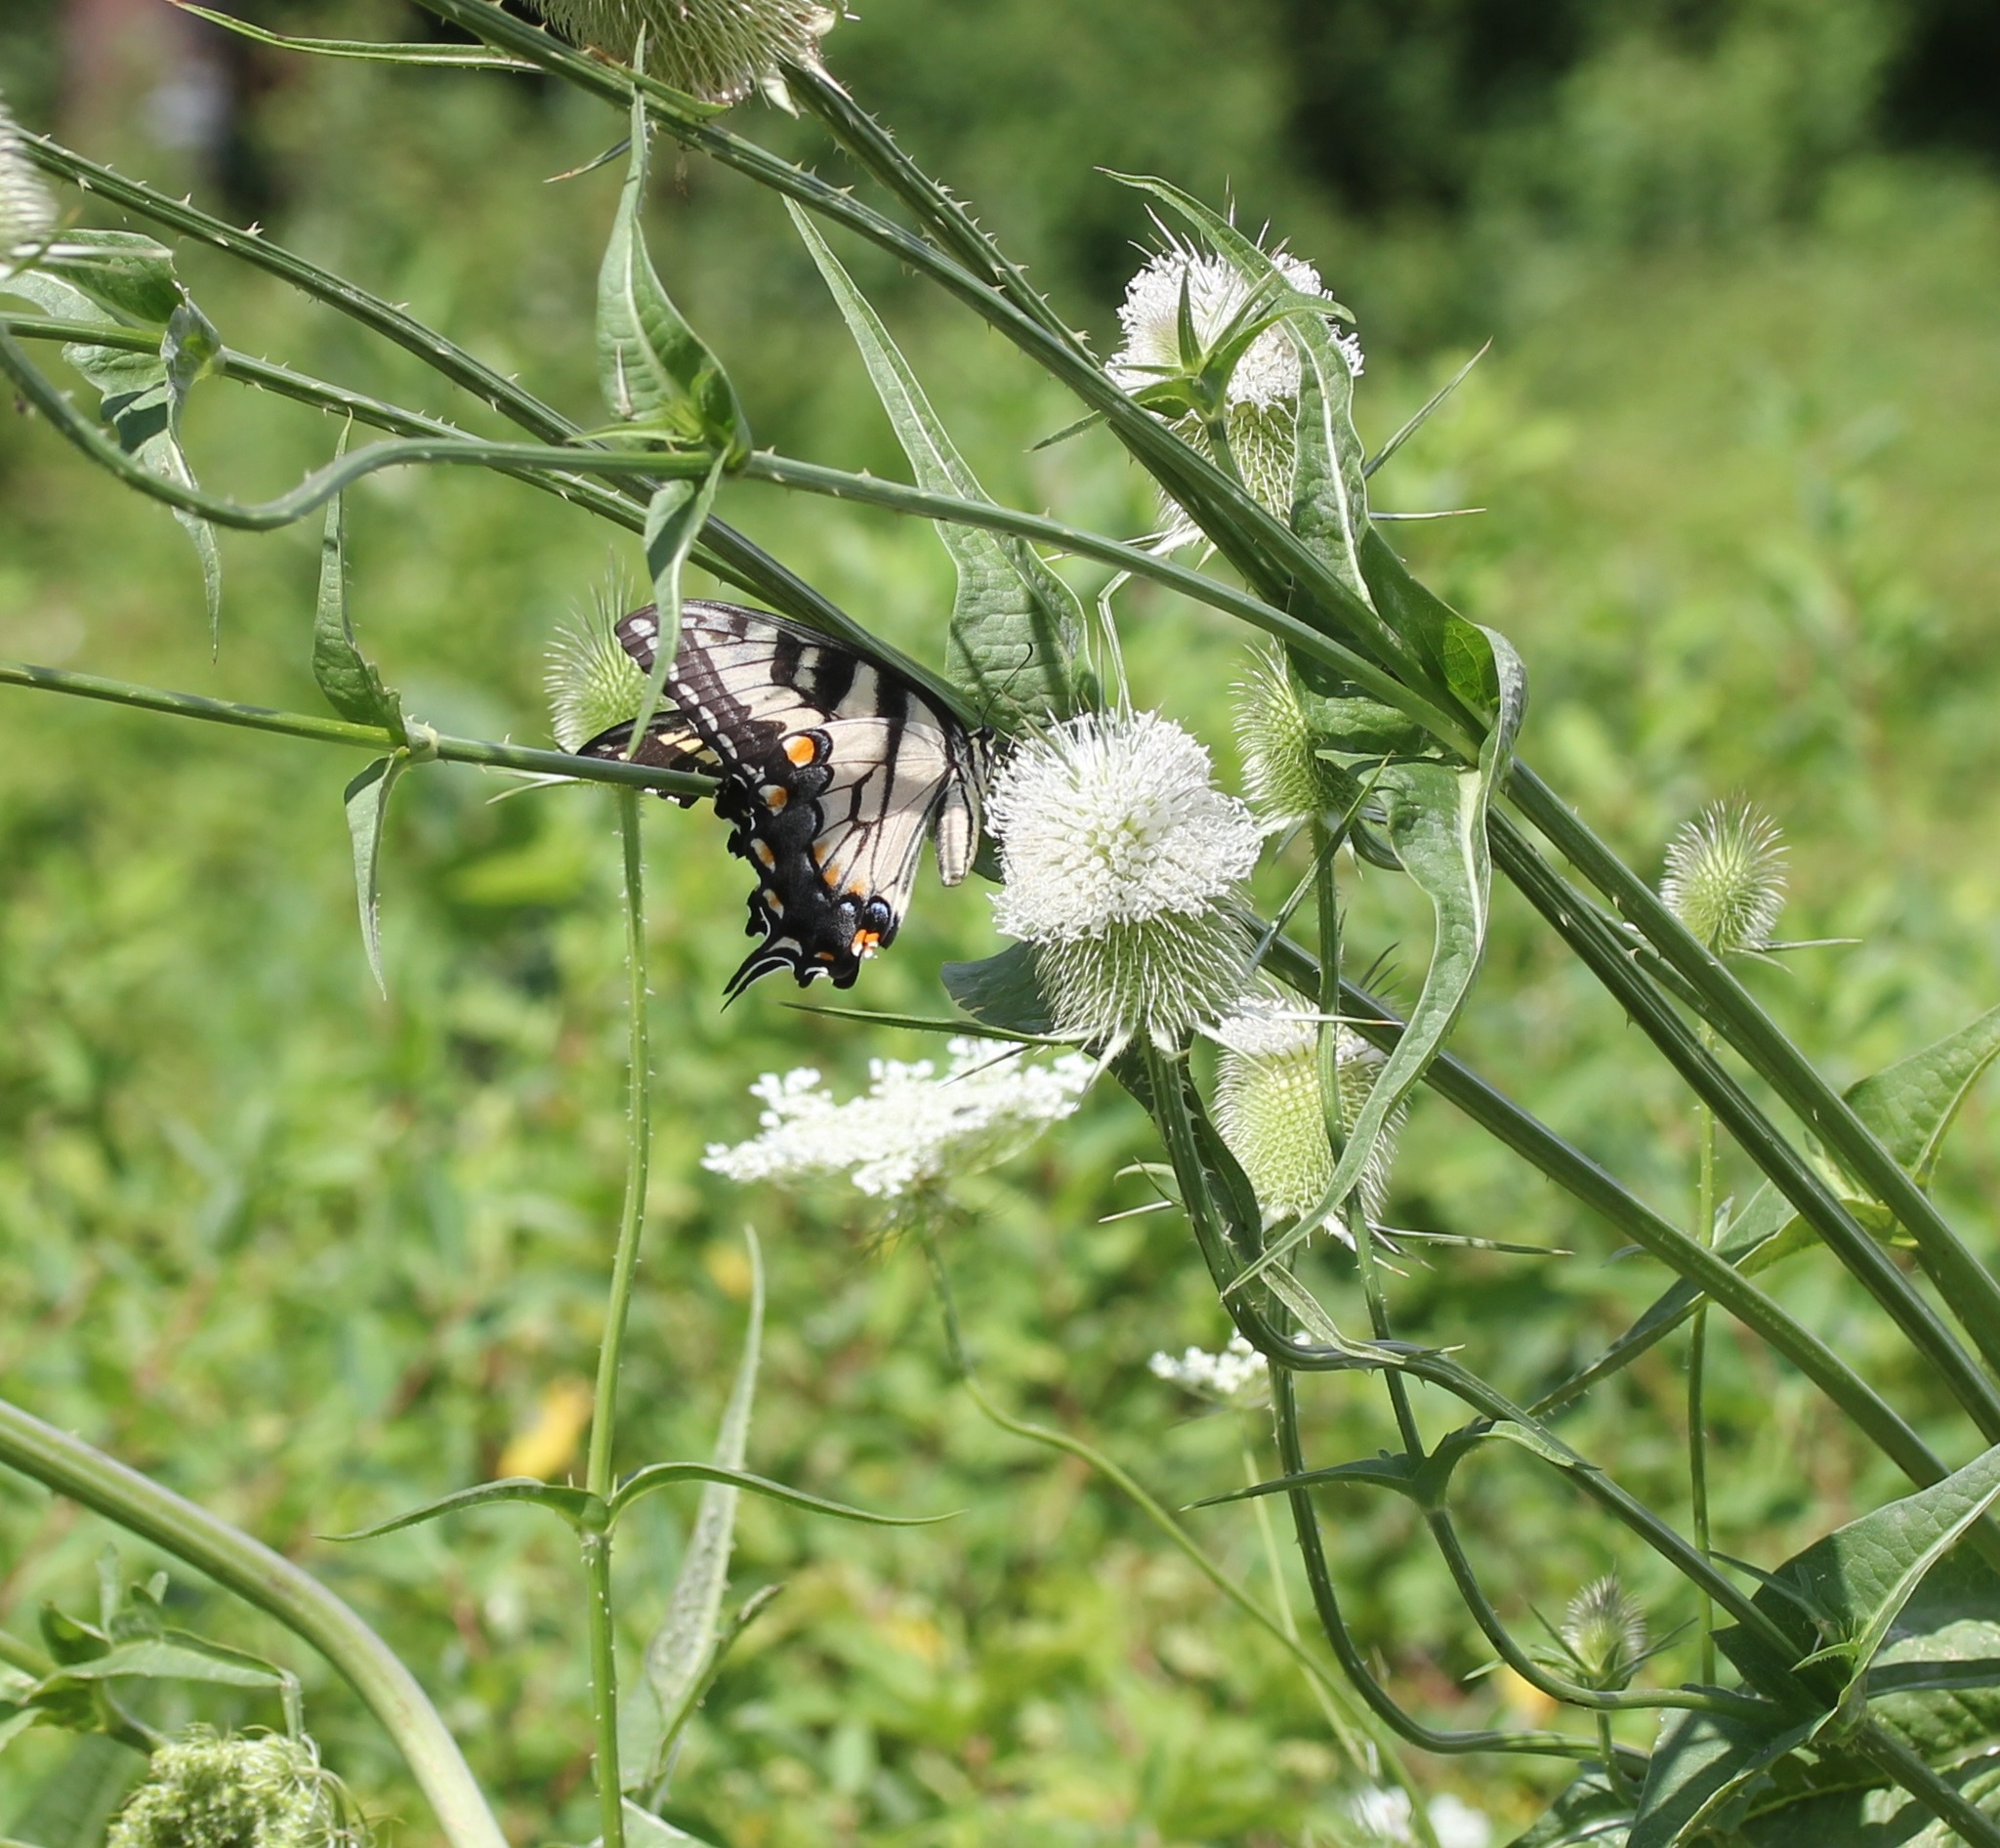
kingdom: Animalia
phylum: Arthropoda
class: Insecta
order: Lepidoptera
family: Papilionidae
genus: Papilio
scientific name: Papilio glaucus
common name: Tiger swallowtail
